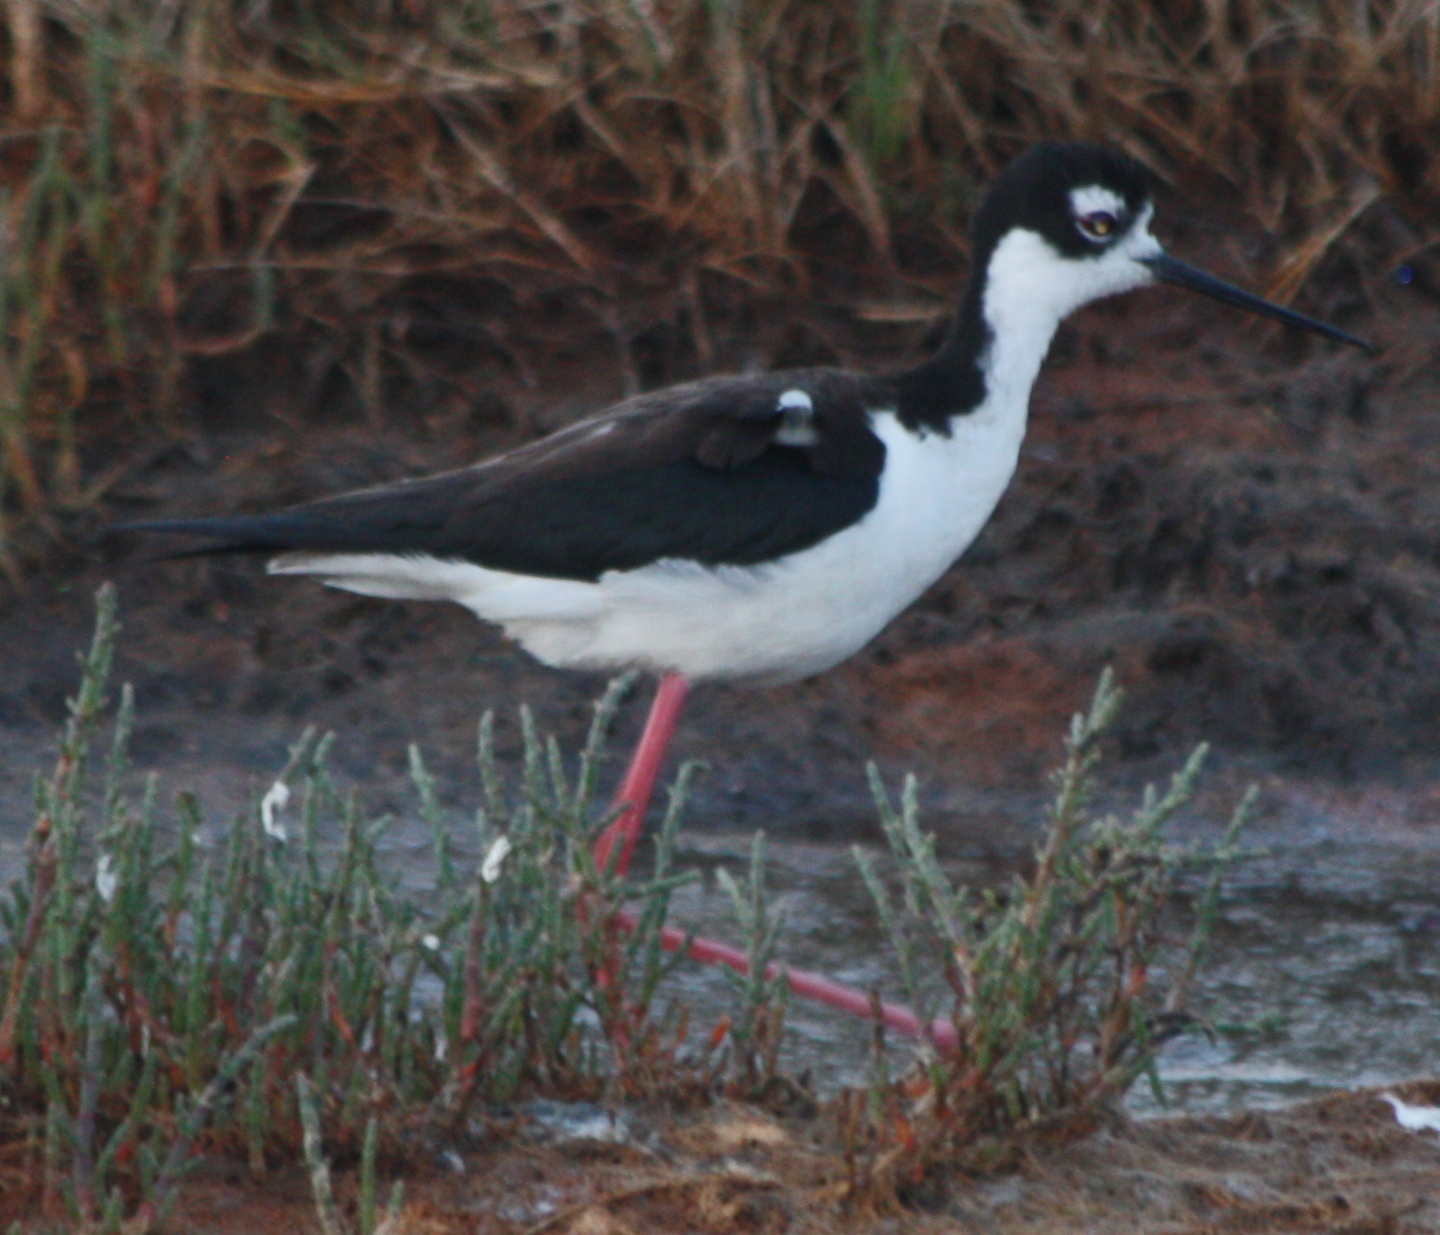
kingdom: Animalia
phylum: Chordata
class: Aves
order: Charadriiformes
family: Recurvirostridae
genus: Himantopus
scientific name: Himantopus mexicanus
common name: Black-necked stilt
